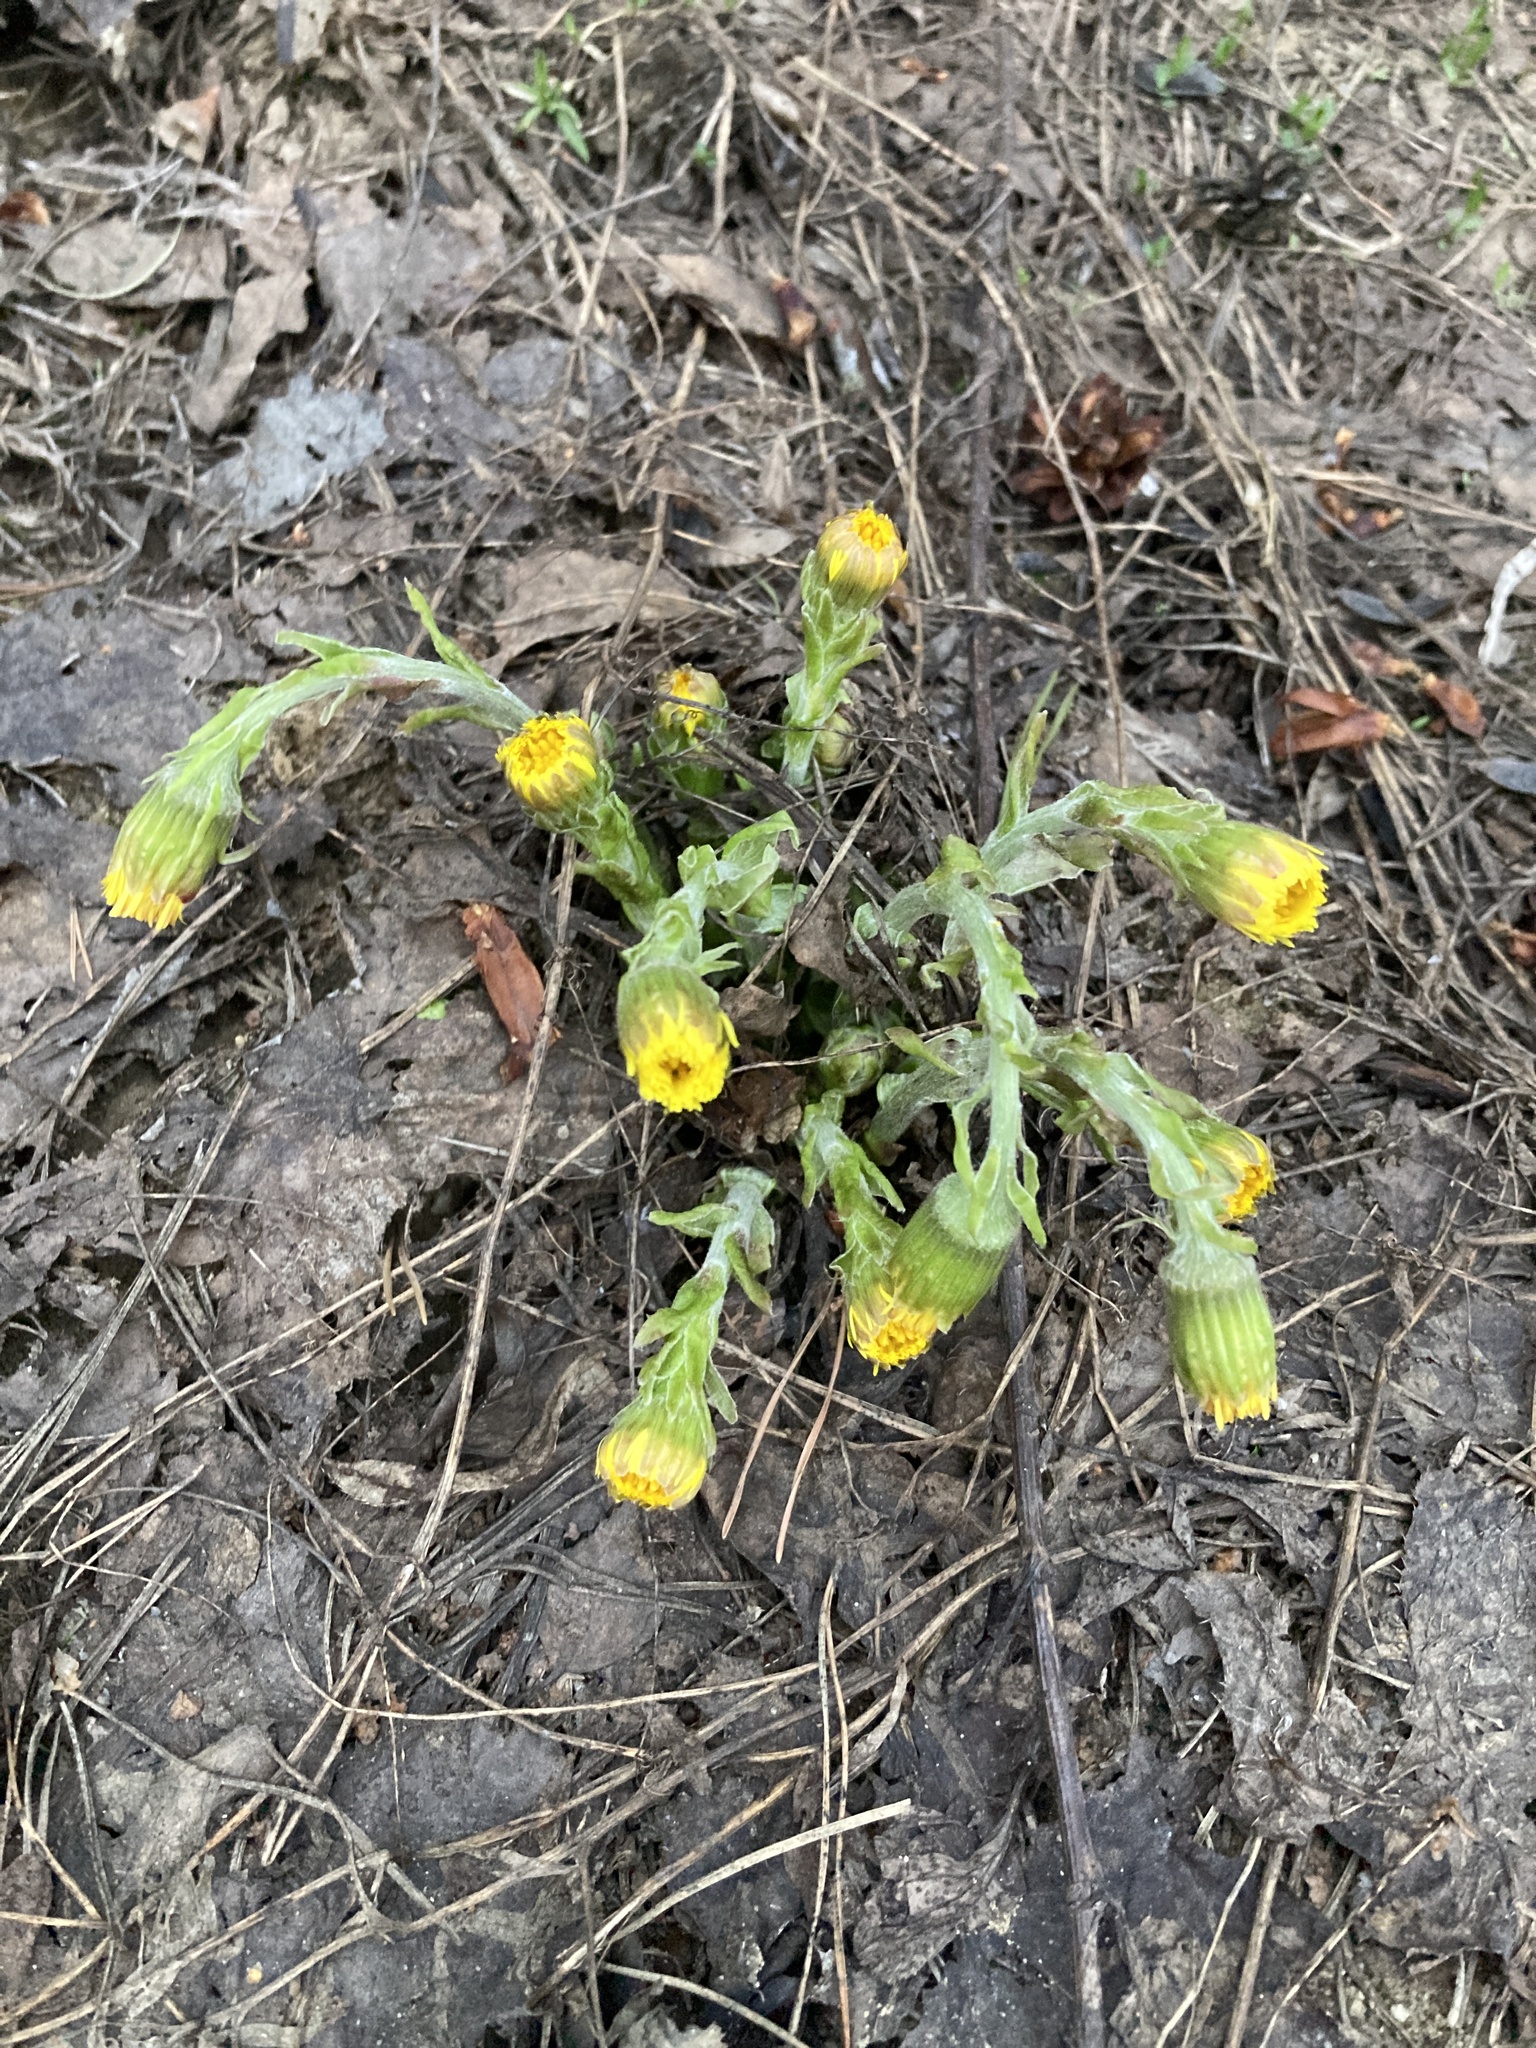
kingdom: Plantae
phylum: Tracheophyta
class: Magnoliopsida
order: Asterales
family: Asteraceae
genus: Tussilago
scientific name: Tussilago farfara
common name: Coltsfoot
